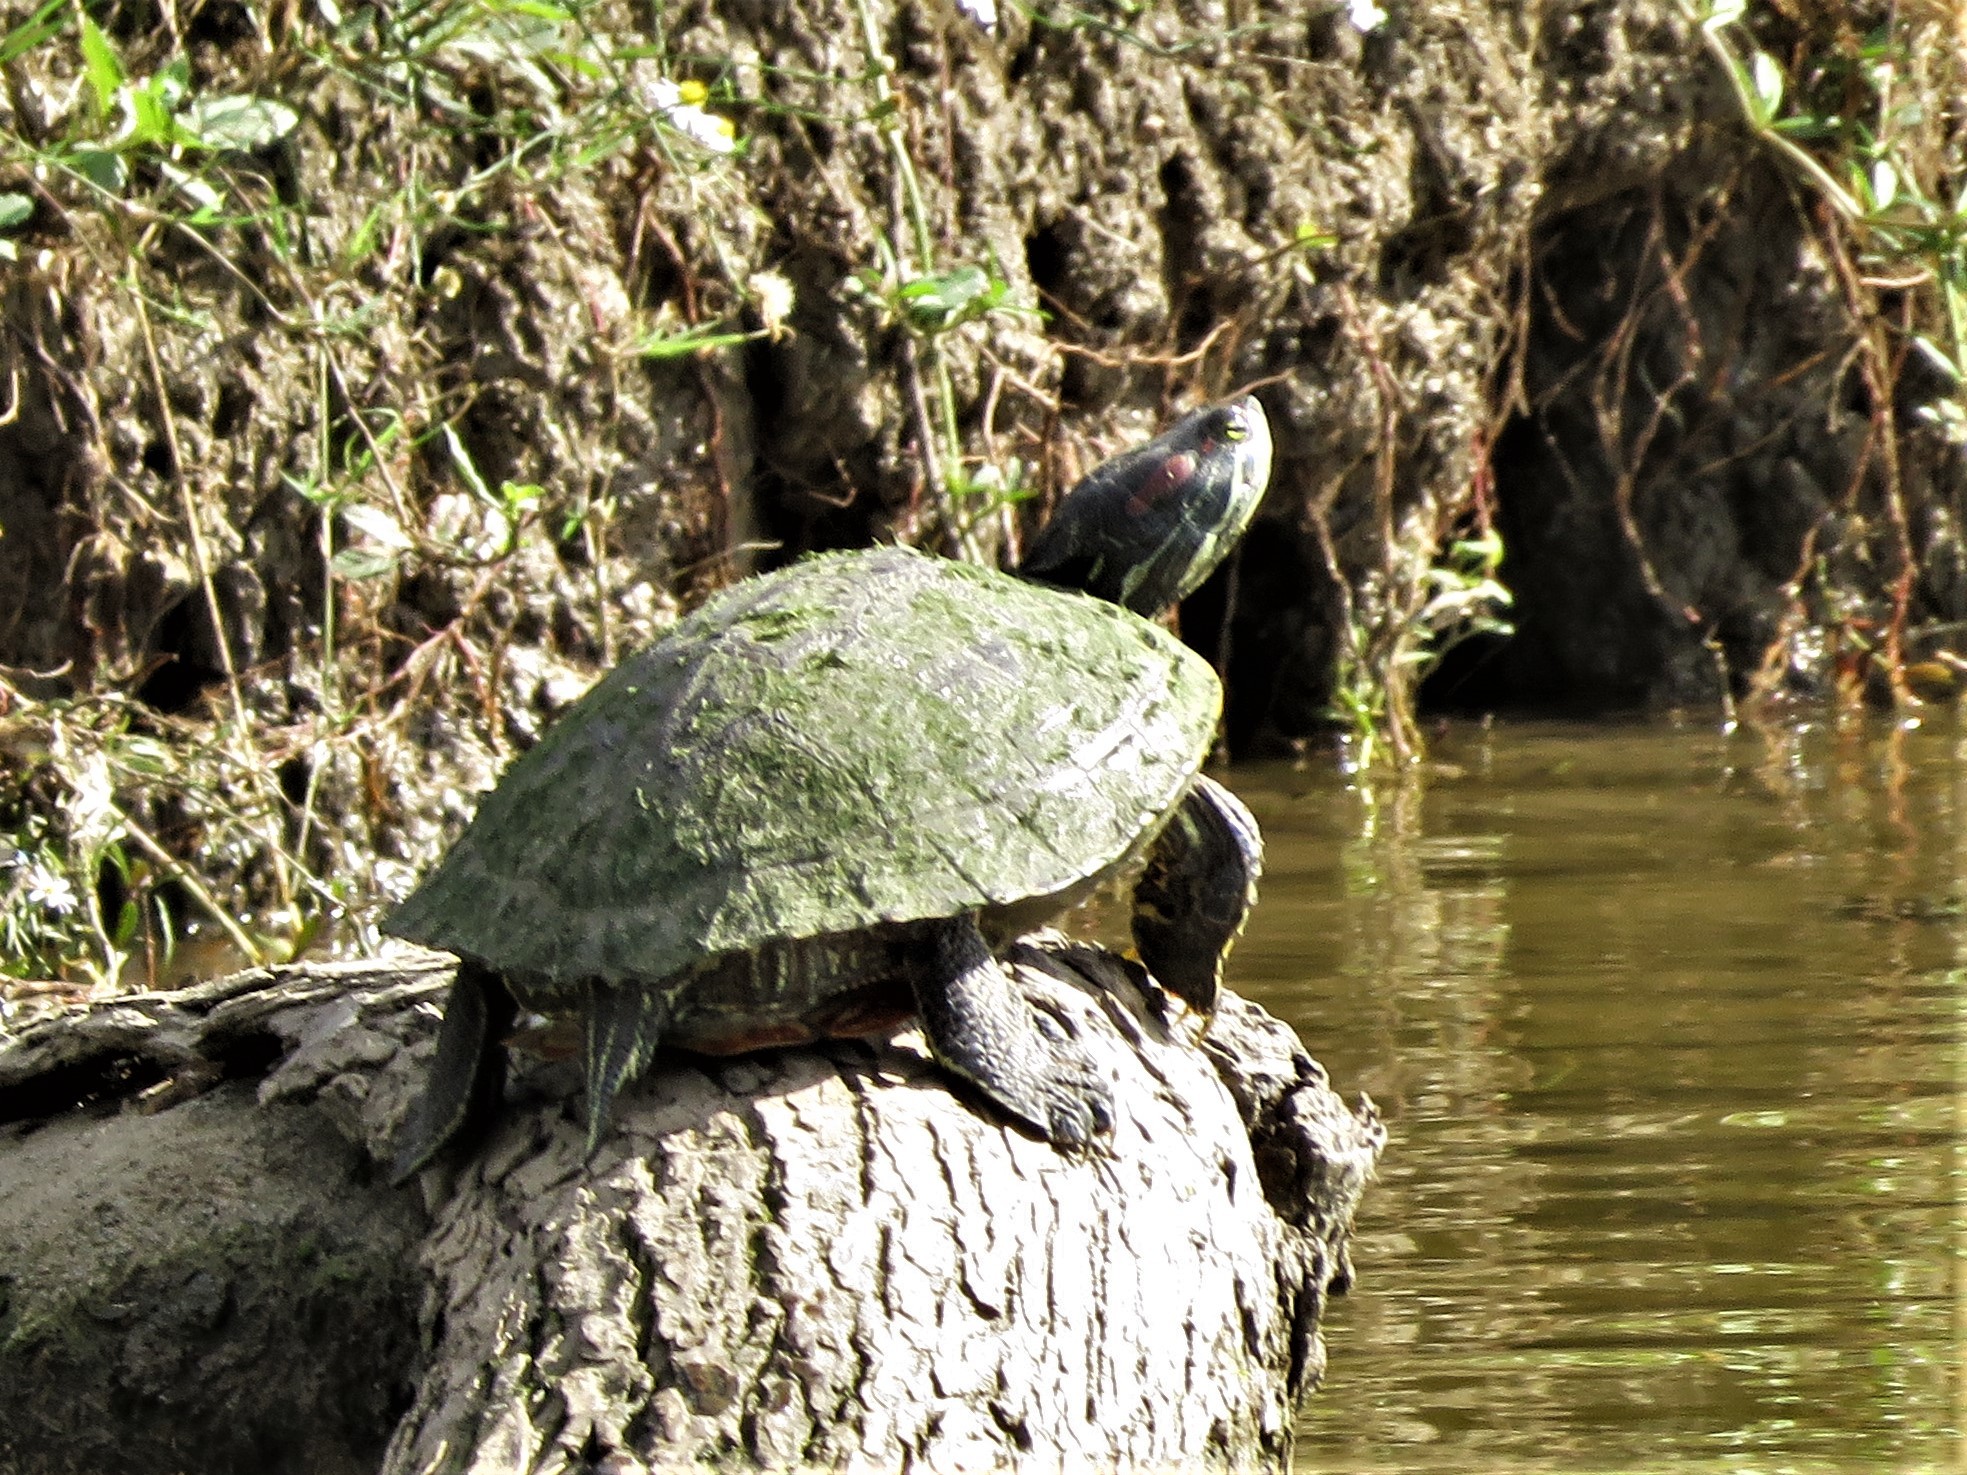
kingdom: Animalia
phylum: Chordata
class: Testudines
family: Emydidae
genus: Trachemys
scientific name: Trachemys scripta
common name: Slider
